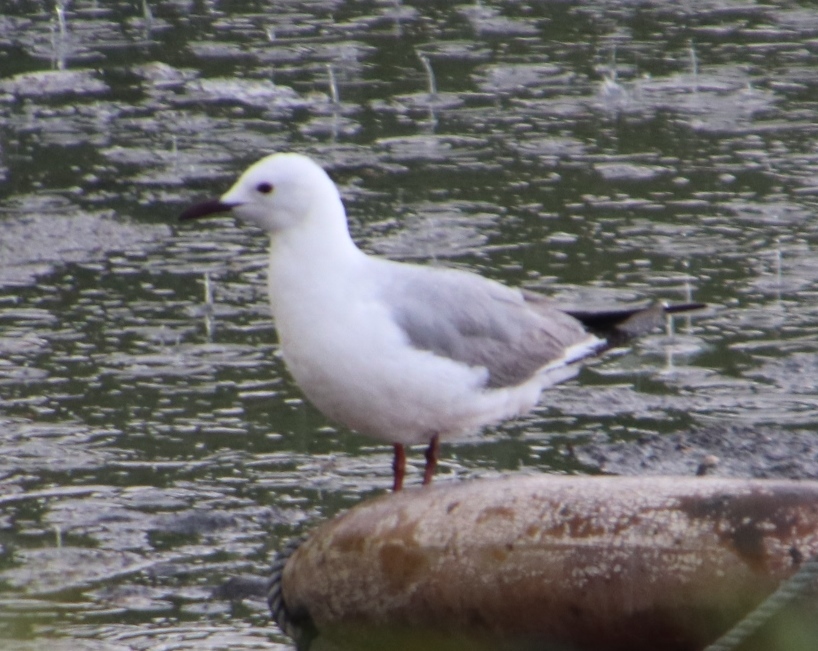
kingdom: Animalia
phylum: Chordata
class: Aves
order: Charadriiformes
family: Laridae
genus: Chroicocephalus
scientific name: Chroicocephalus hartlaubii
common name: Hartlaub's gull
